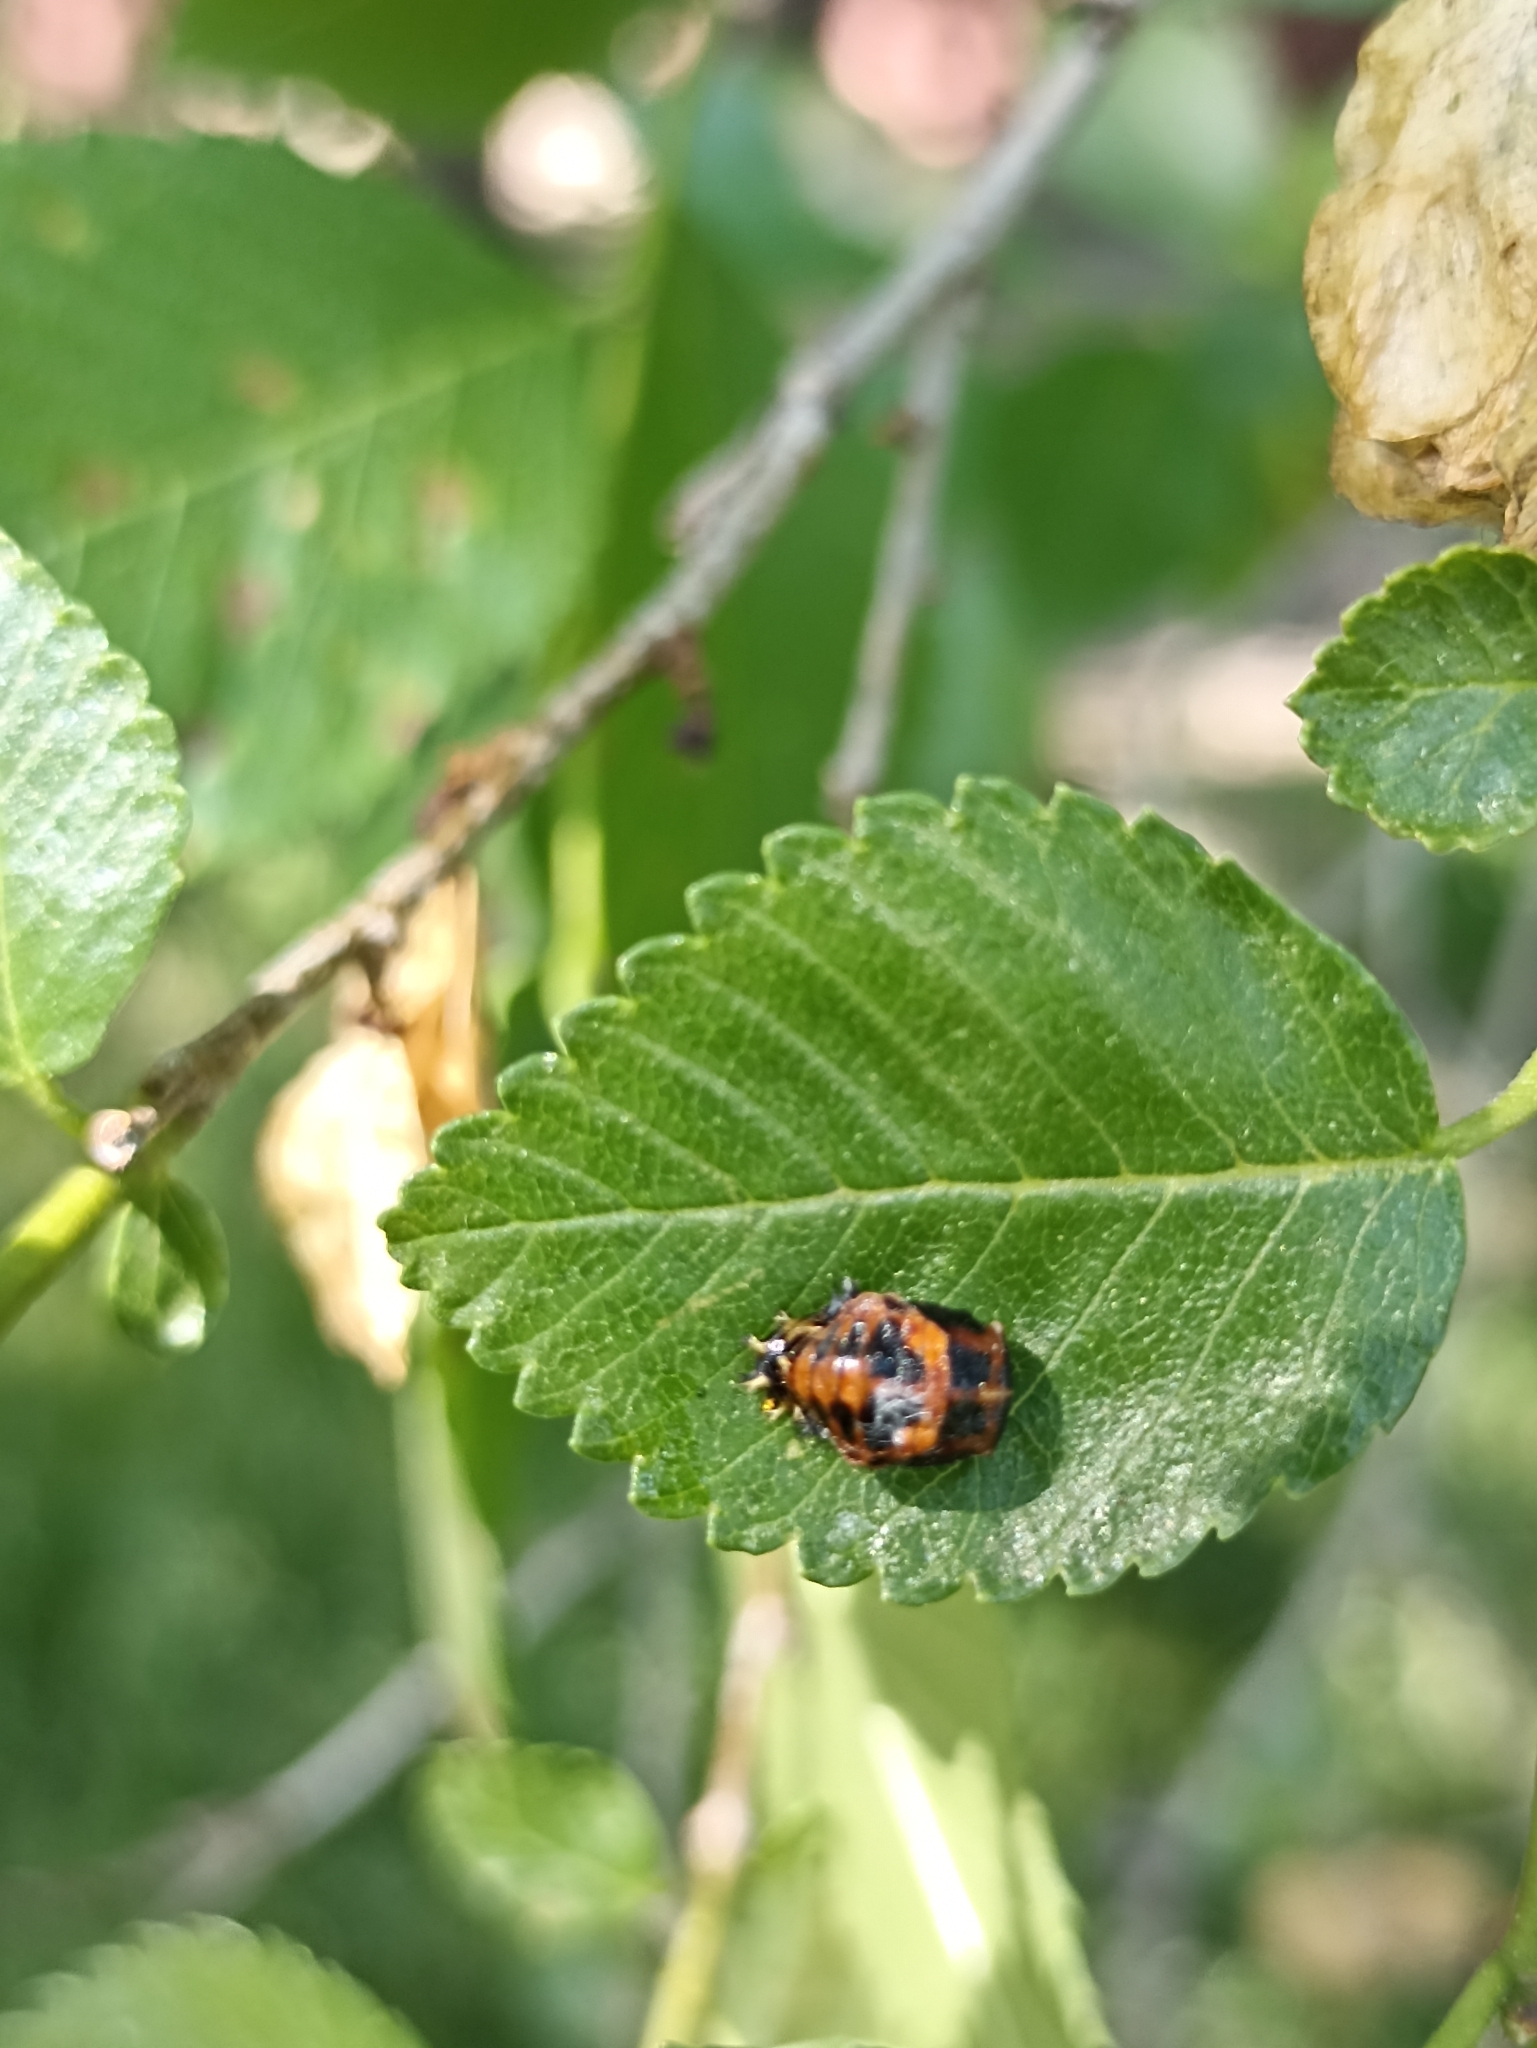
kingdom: Animalia
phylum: Arthropoda
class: Insecta
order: Coleoptera
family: Coccinellidae
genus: Harmonia
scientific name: Harmonia axyridis
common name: Harlequin ladybird
